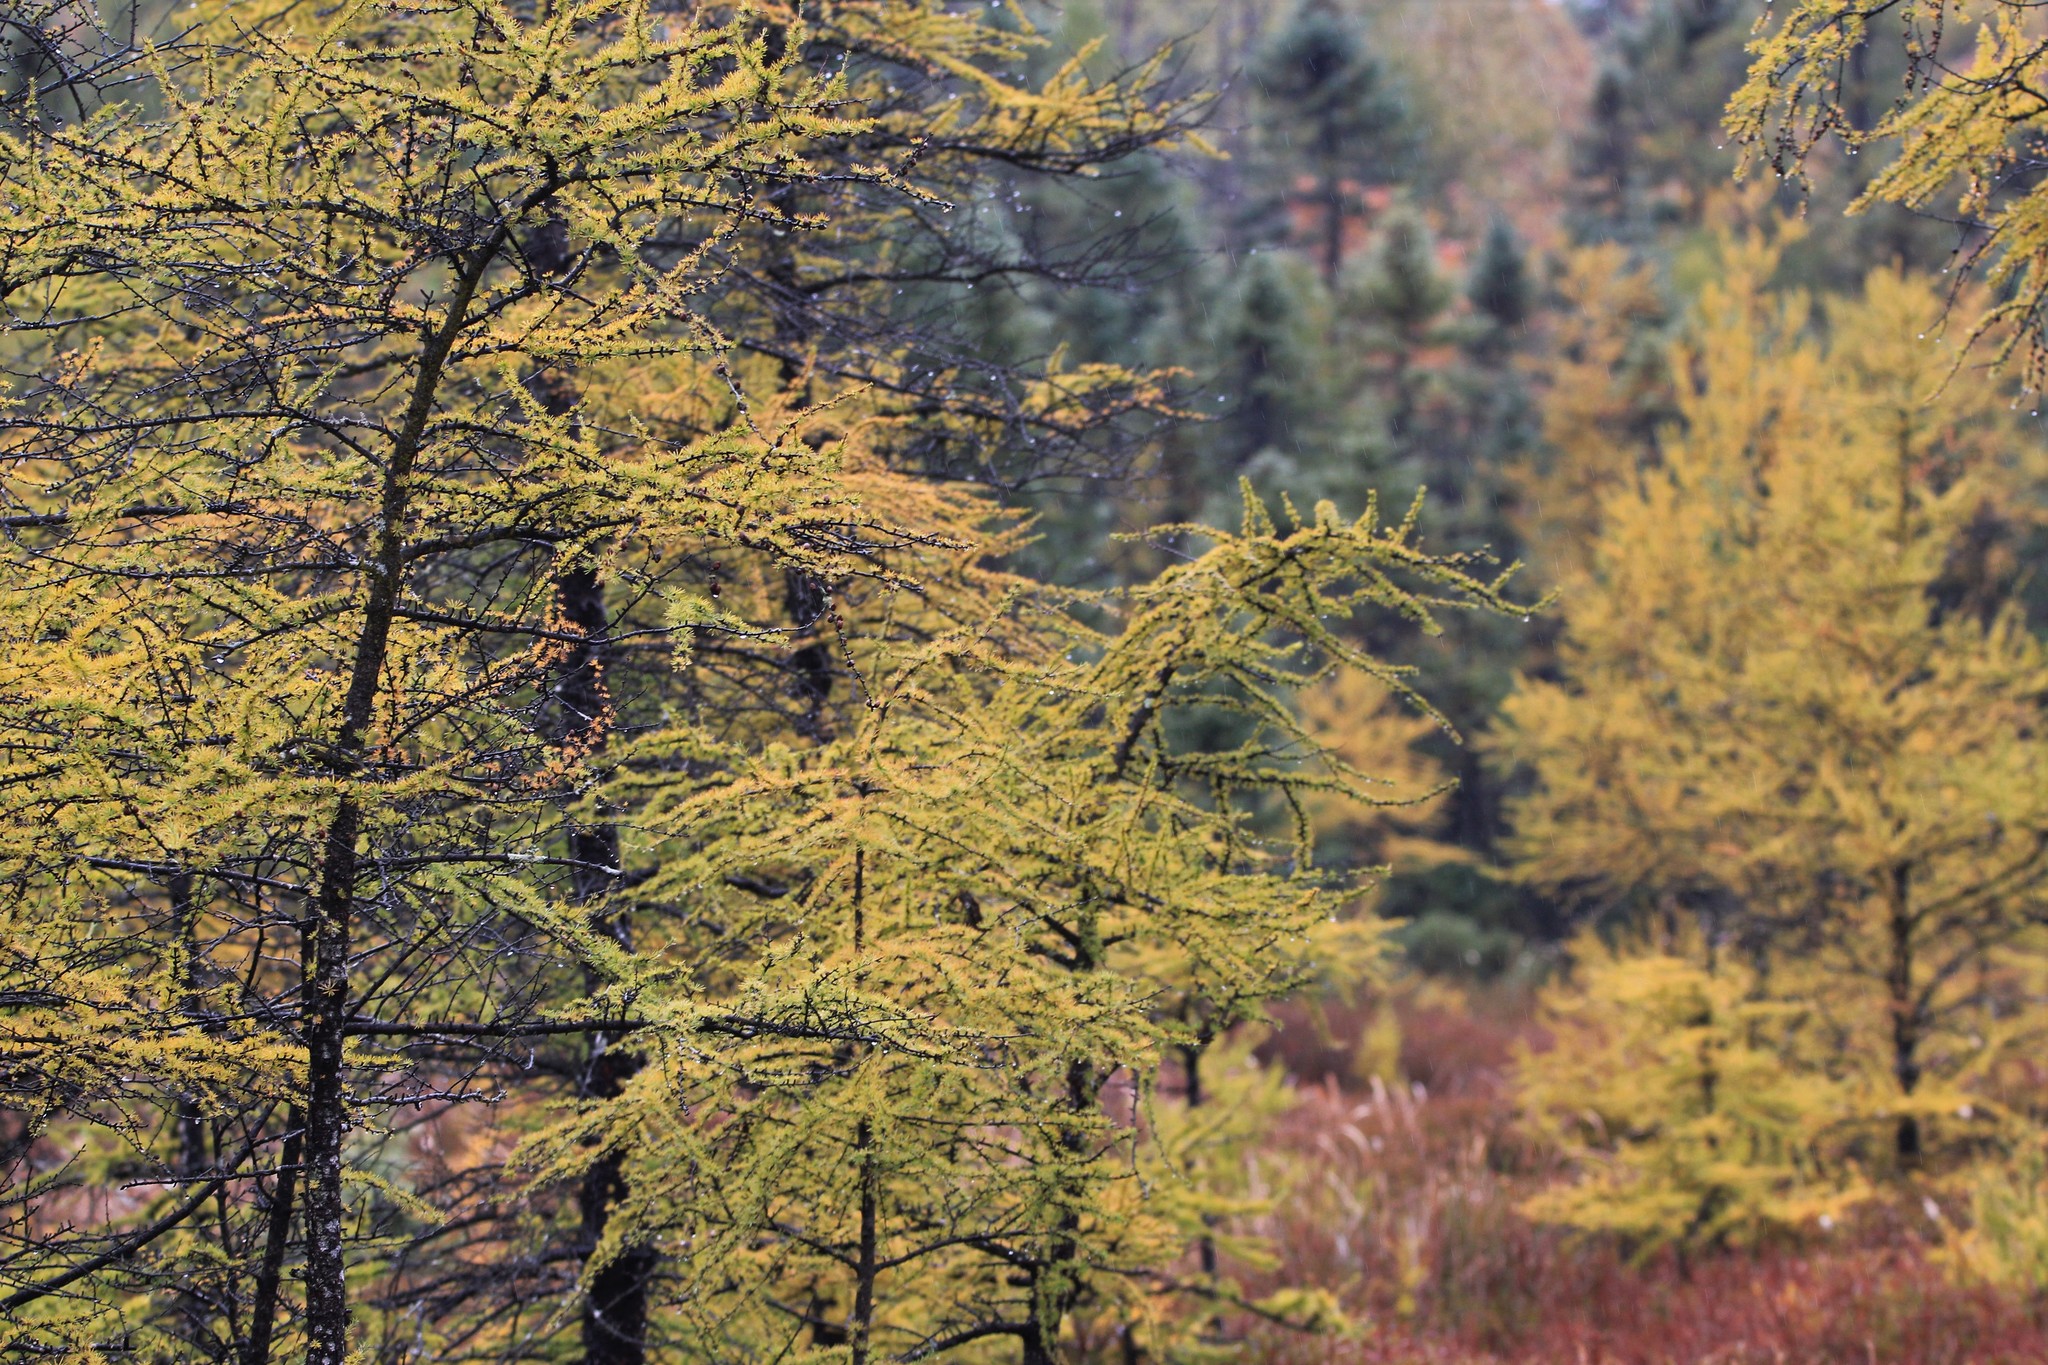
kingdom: Plantae
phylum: Tracheophyta
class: Pinopsida
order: Pinales
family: Pinaceae
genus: Larix
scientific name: Larix laricina
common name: American larch
